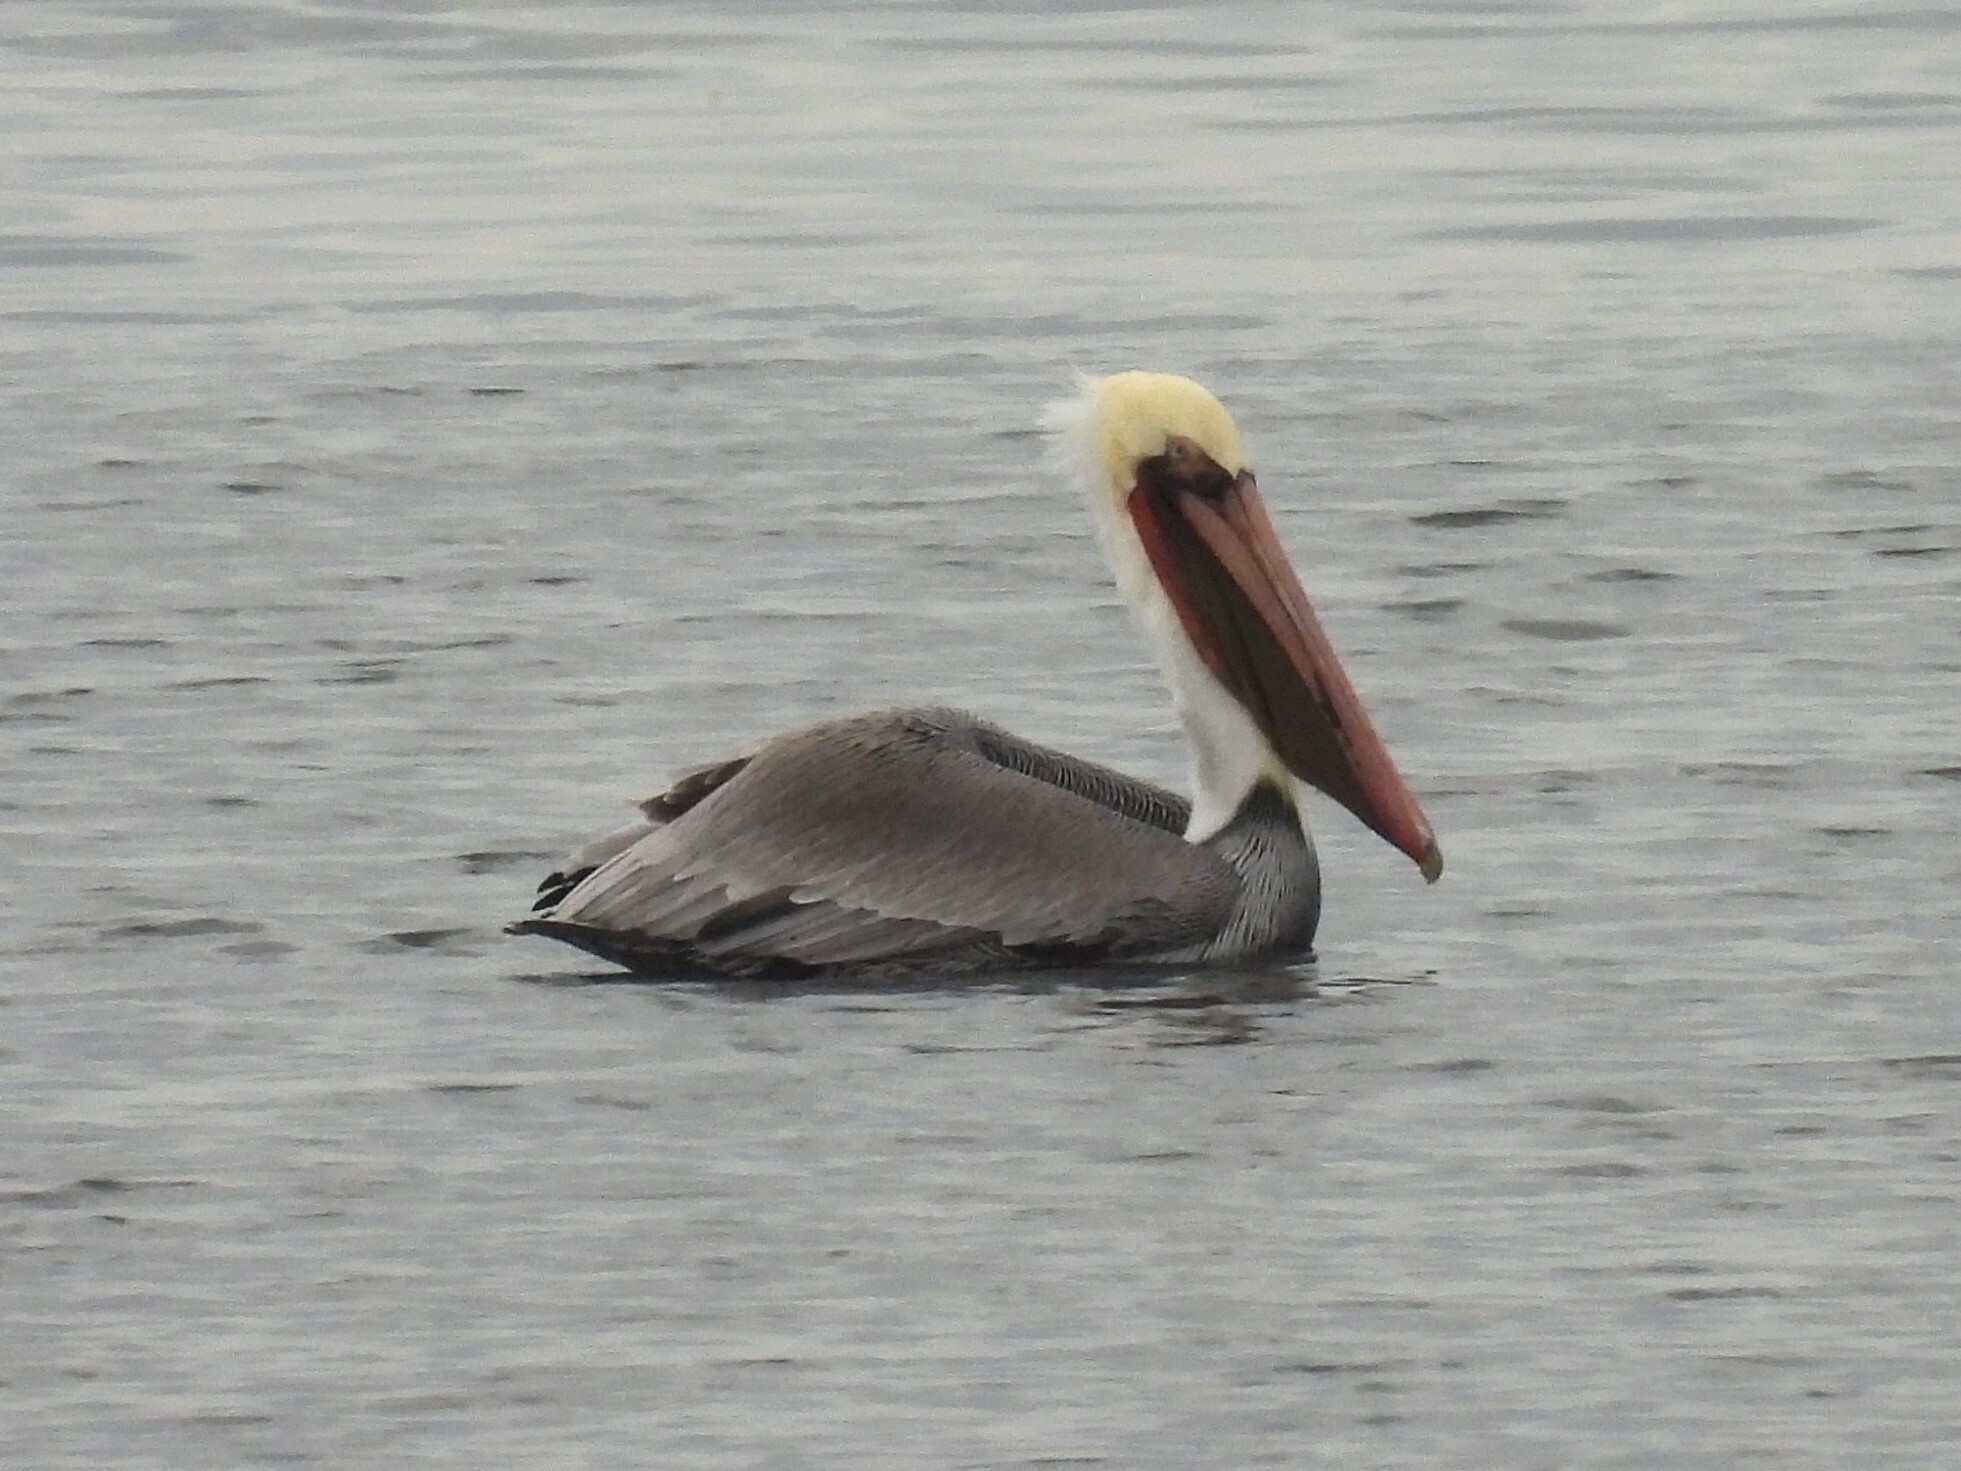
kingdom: Animalia
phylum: Chordata
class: Aves
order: Pelecaniformes
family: Pelecanidae
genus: Pelecanus
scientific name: Pelecanus occidentalis
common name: Brown pelican
